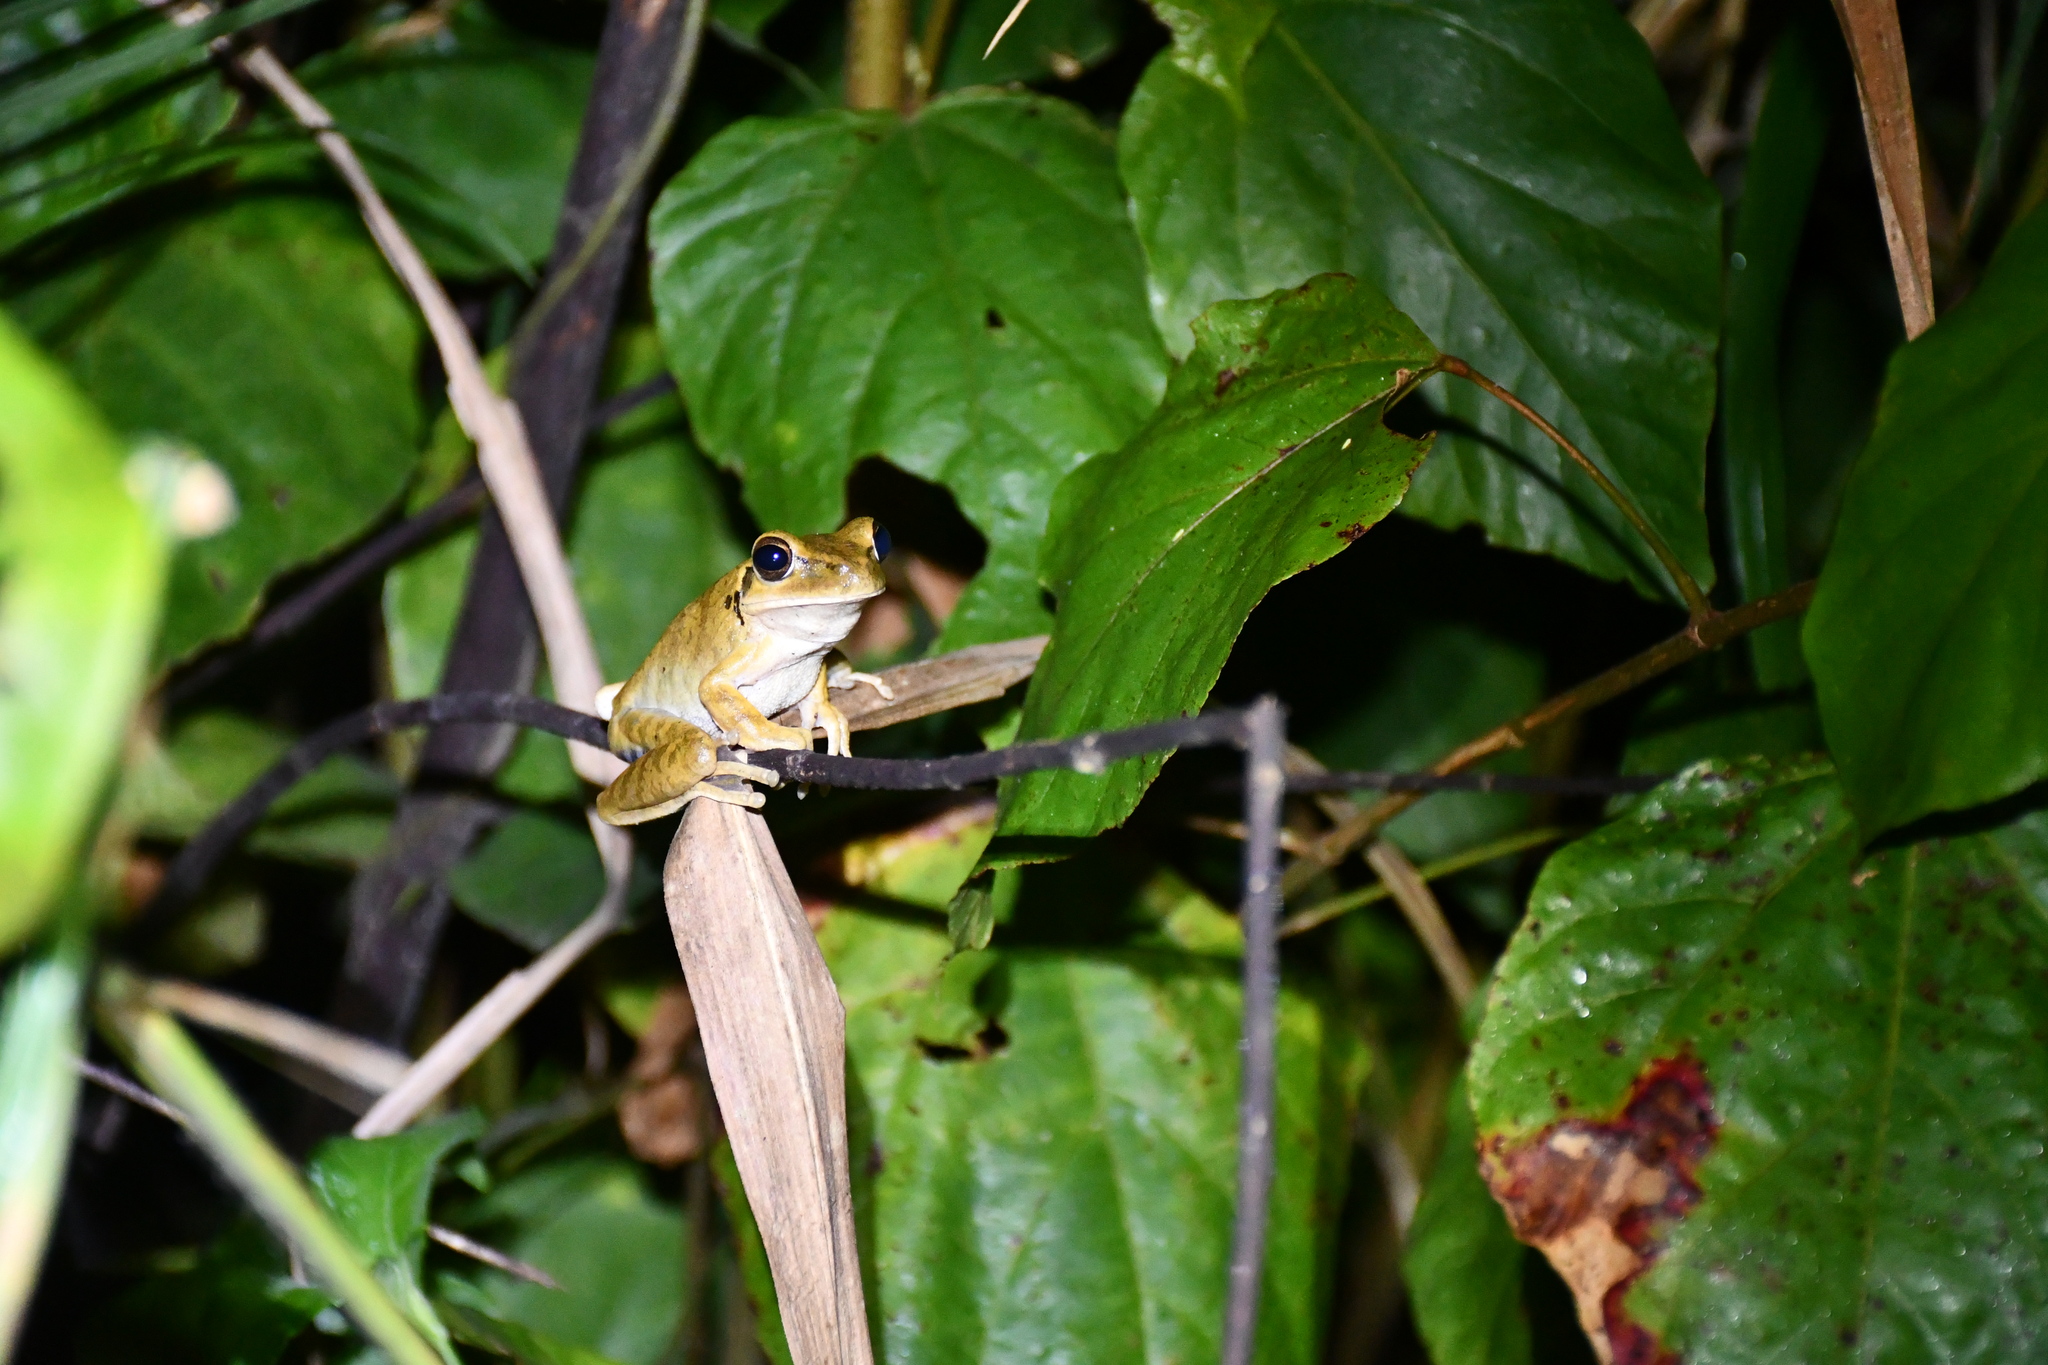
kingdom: Animalia
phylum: Chordata
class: Amphibia
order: Anura
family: Hylidae
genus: Boana
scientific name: Boana raniceps
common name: Chaco treefrog
